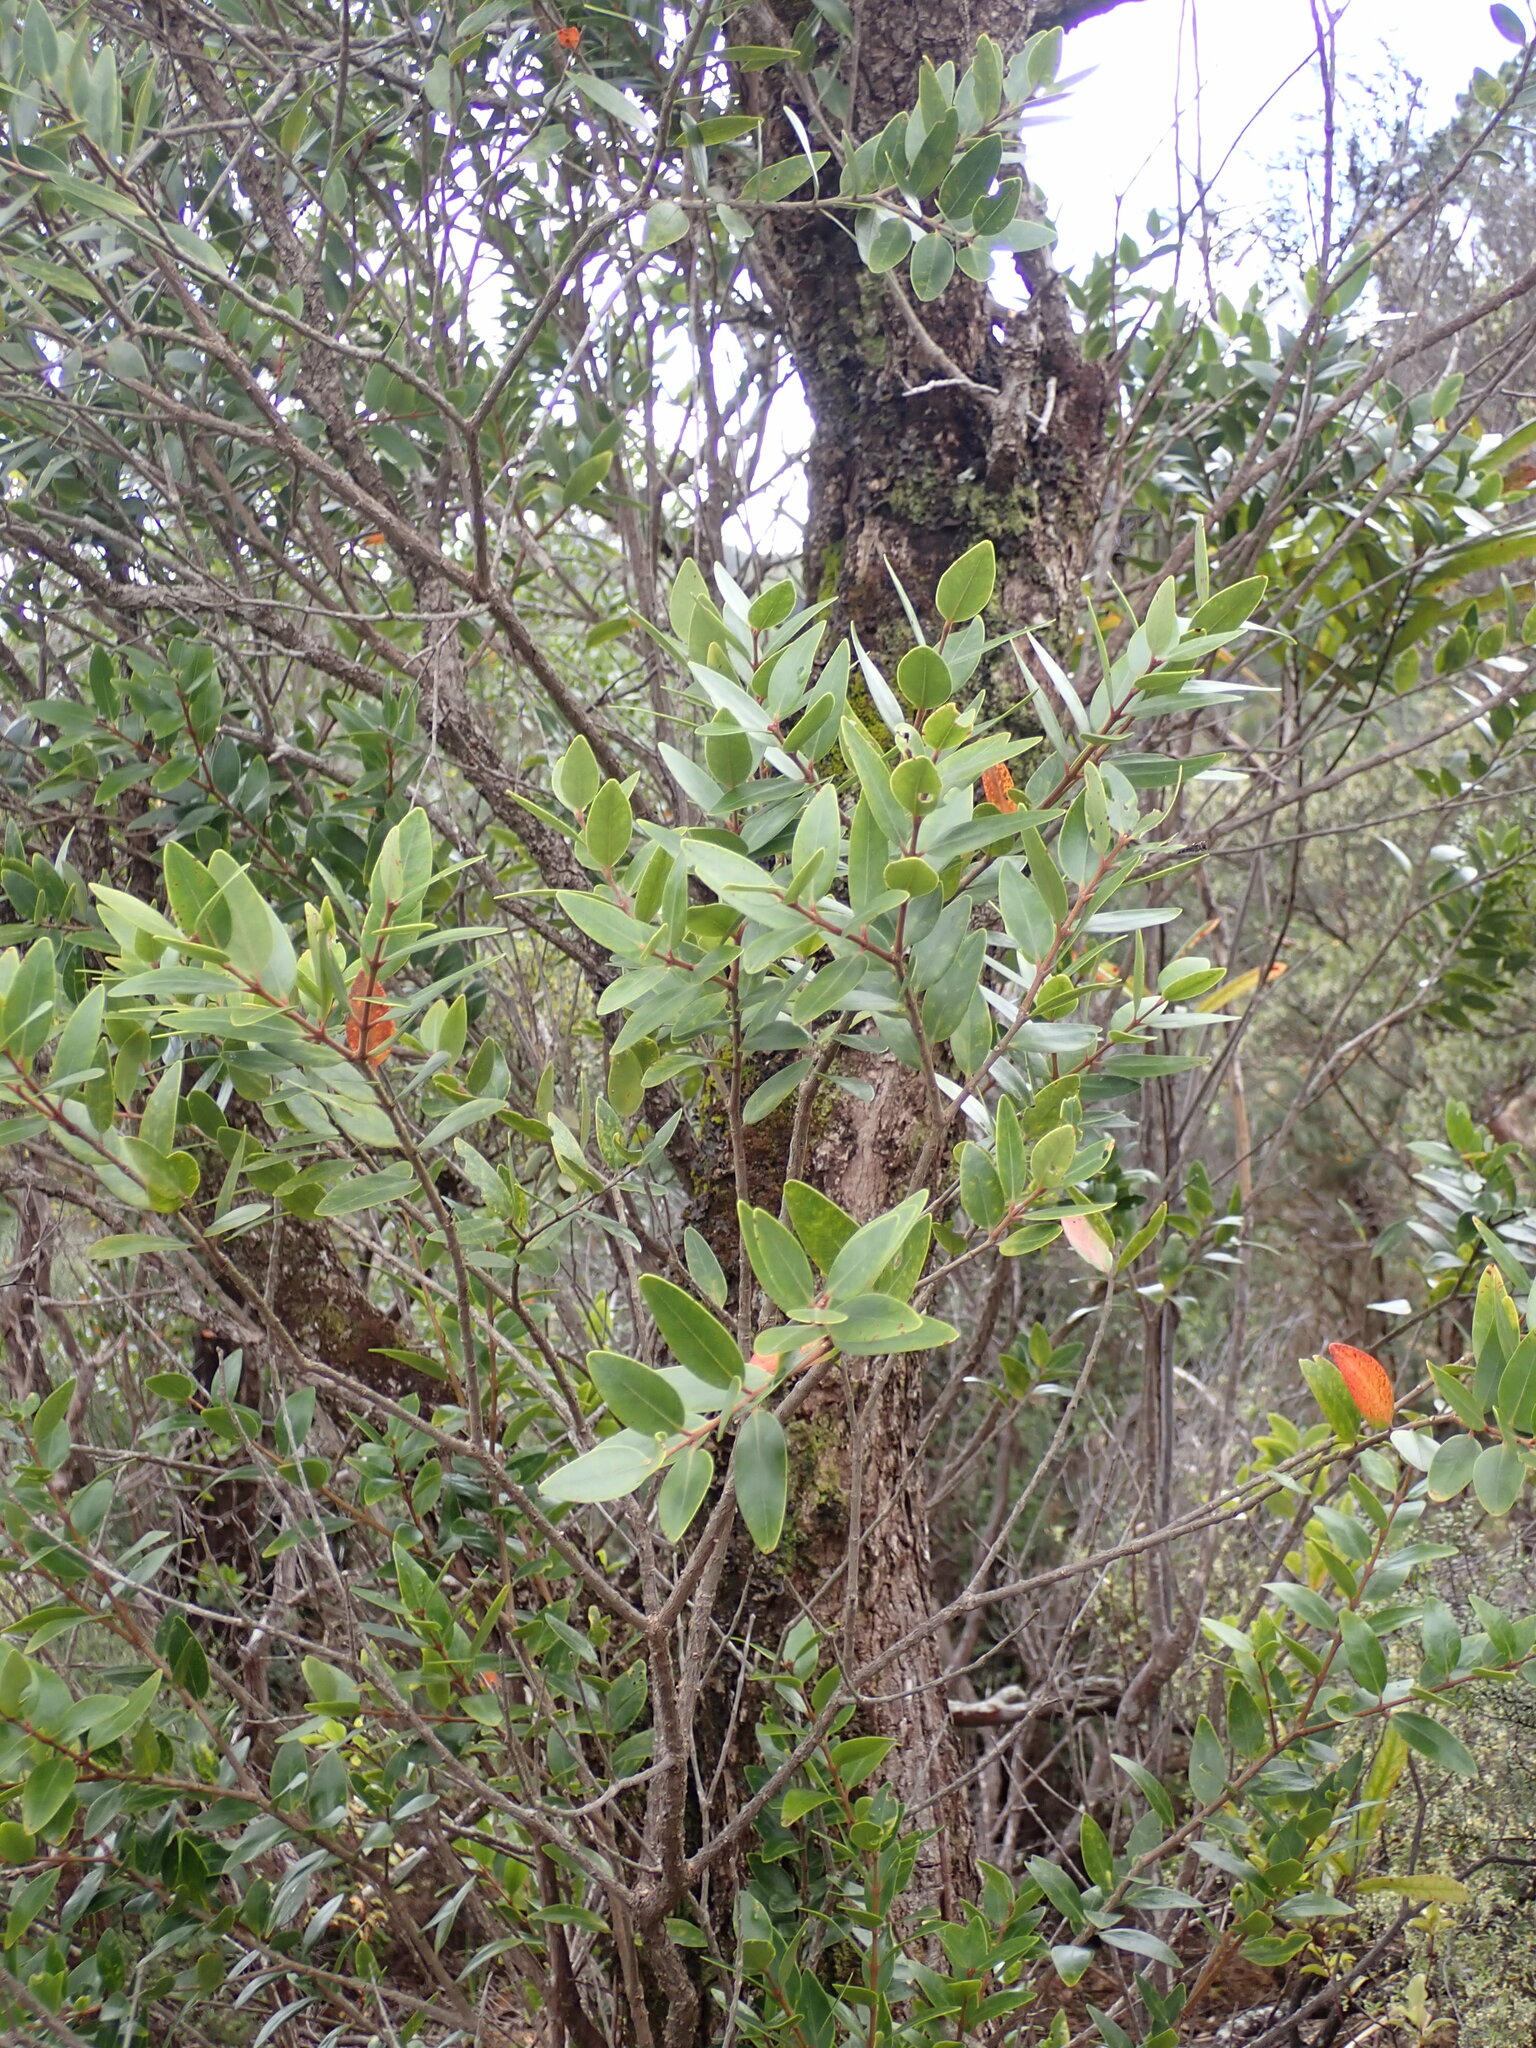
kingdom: Plantae
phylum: Tracheophyta
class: Magnoliopsida
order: Myrtales
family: Myrtaceae
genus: Metrosideros
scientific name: Metrosideros robusta
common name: Northern rata
